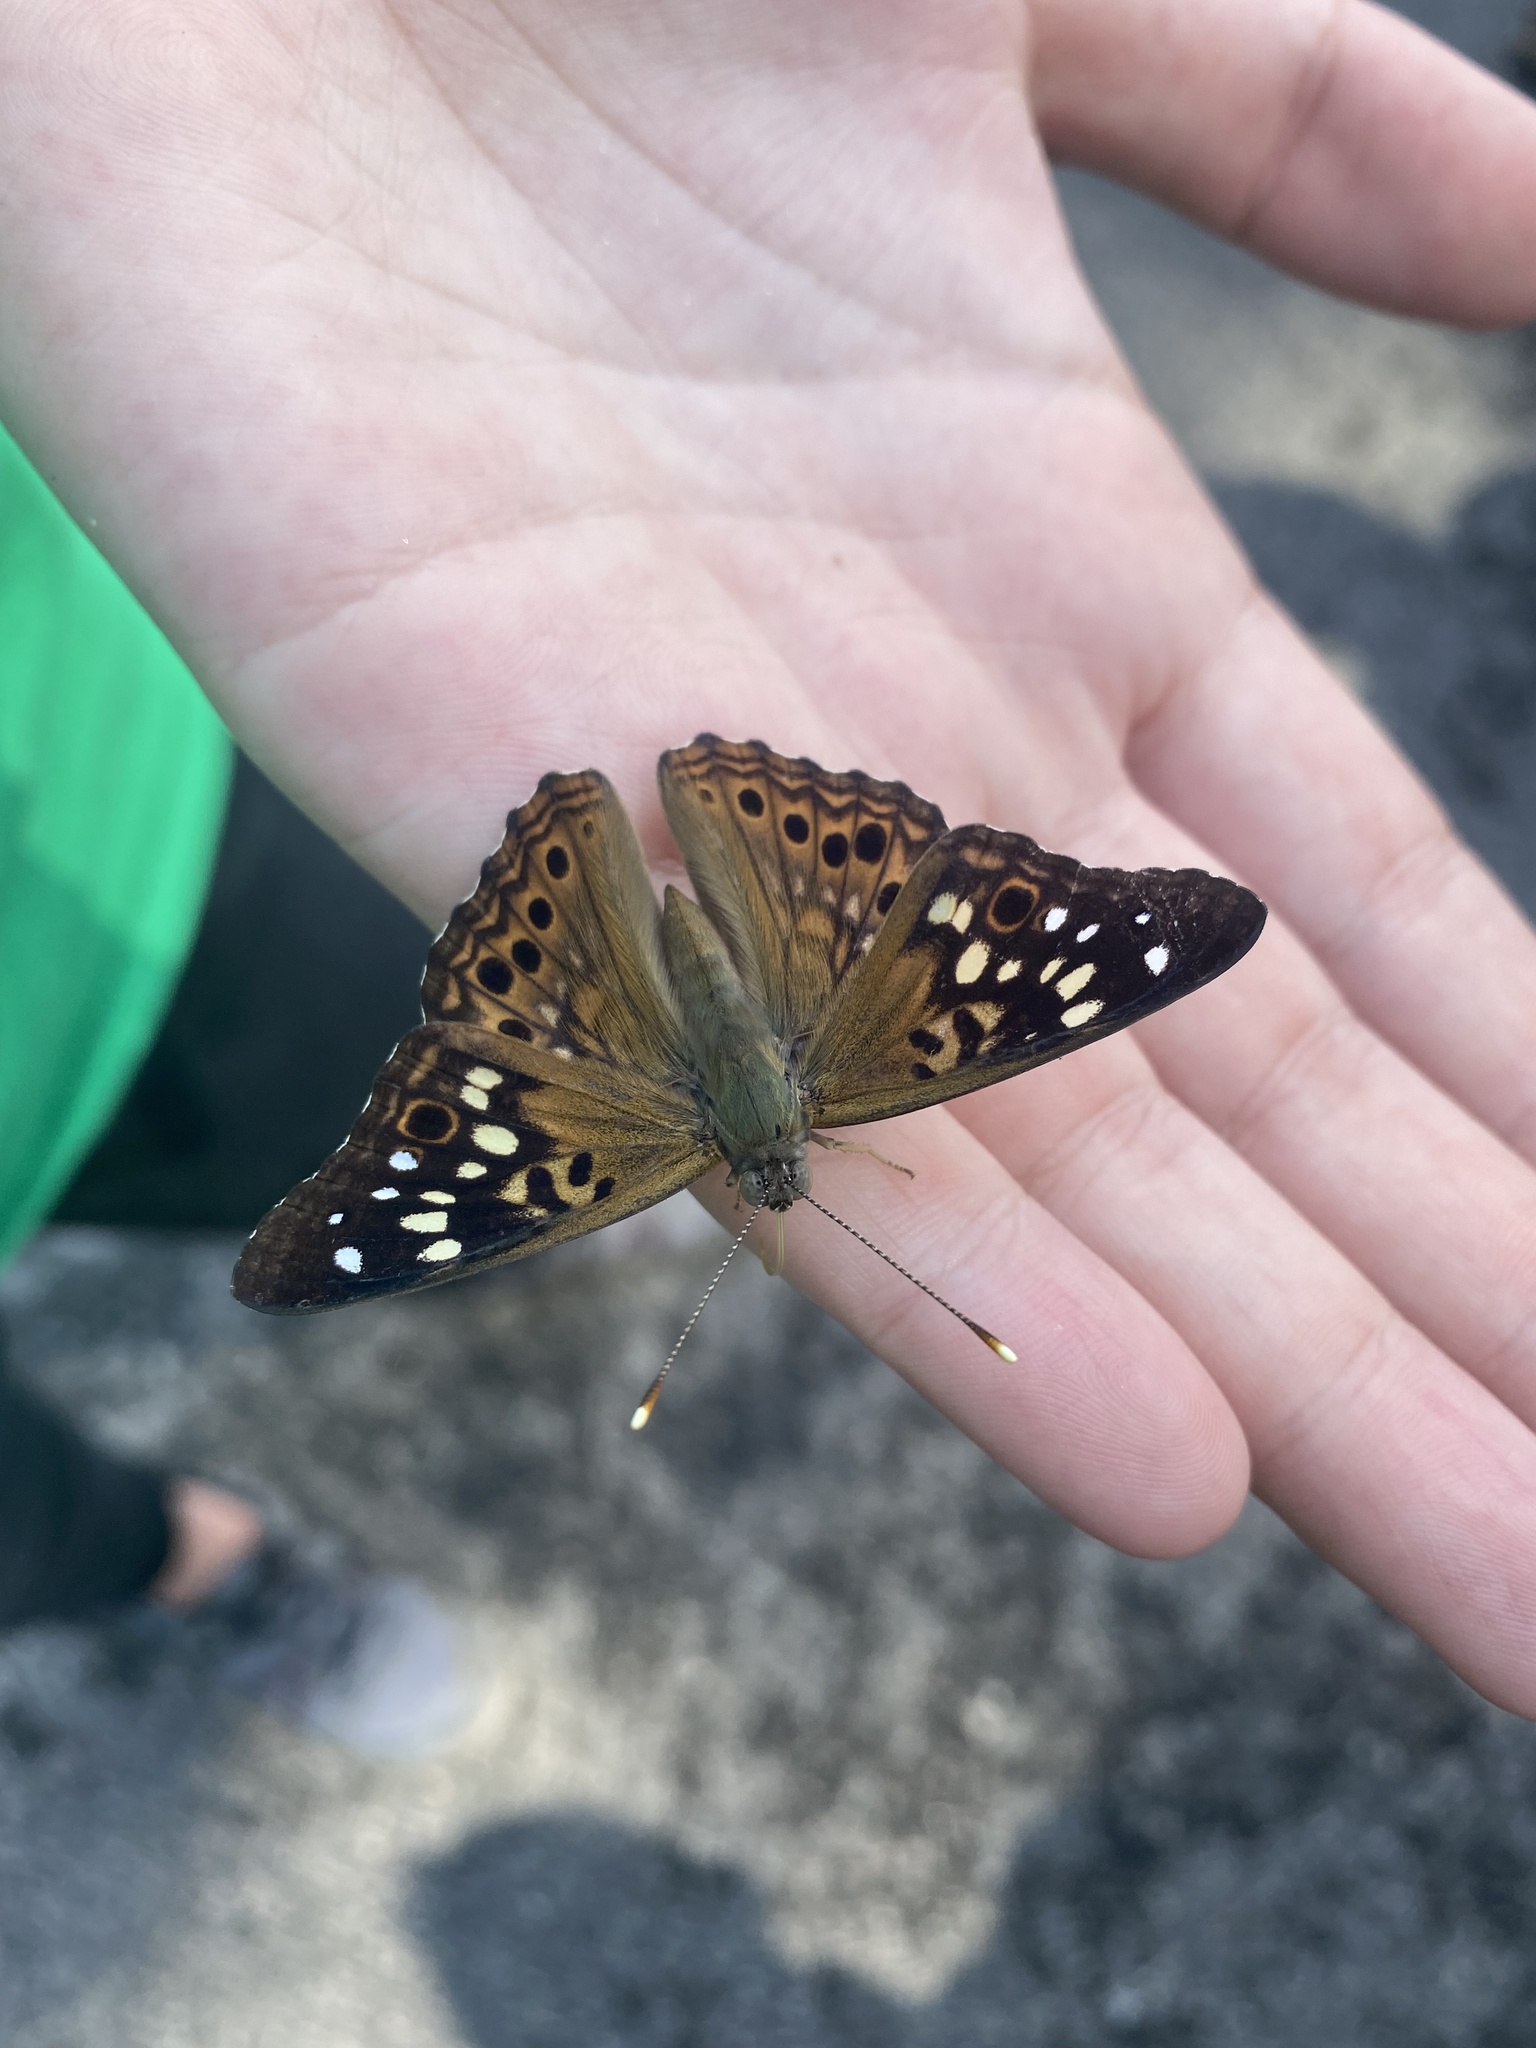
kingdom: Animalia
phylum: Arthropoda
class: Insecta
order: Lepidoptera
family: Nymphalidae
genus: Asterocampa
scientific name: Asterocampa celtis
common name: Hackberry emperor
